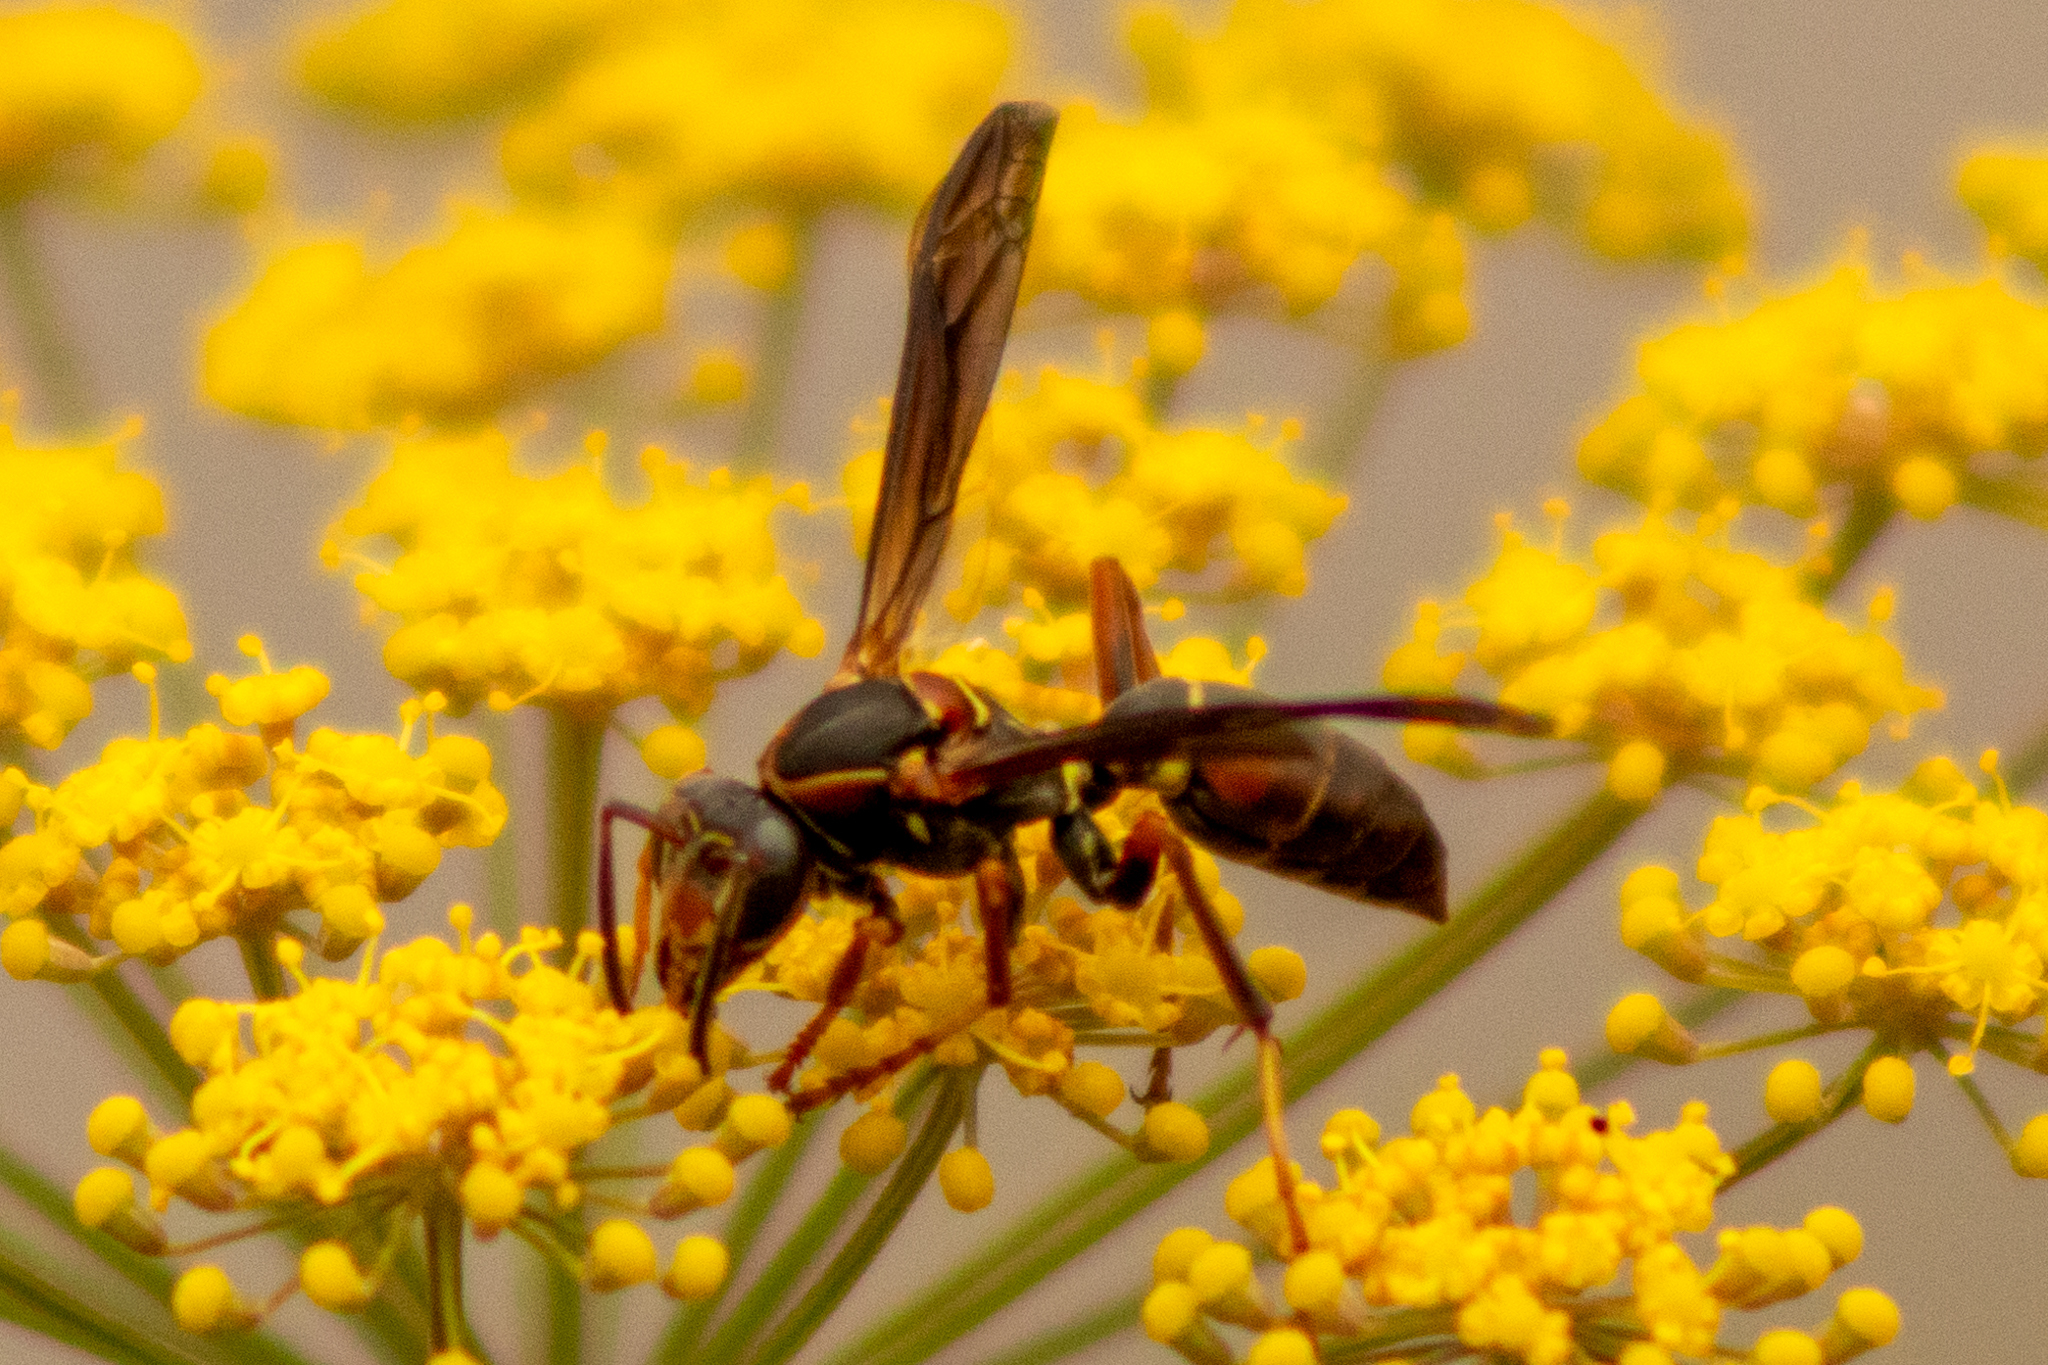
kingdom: Animalia
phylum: Arthropoda
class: Insecta
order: Hymenoptera
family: Eumenidae
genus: Polistes
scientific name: Polistes fuscatus
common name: Dark paper wasp
